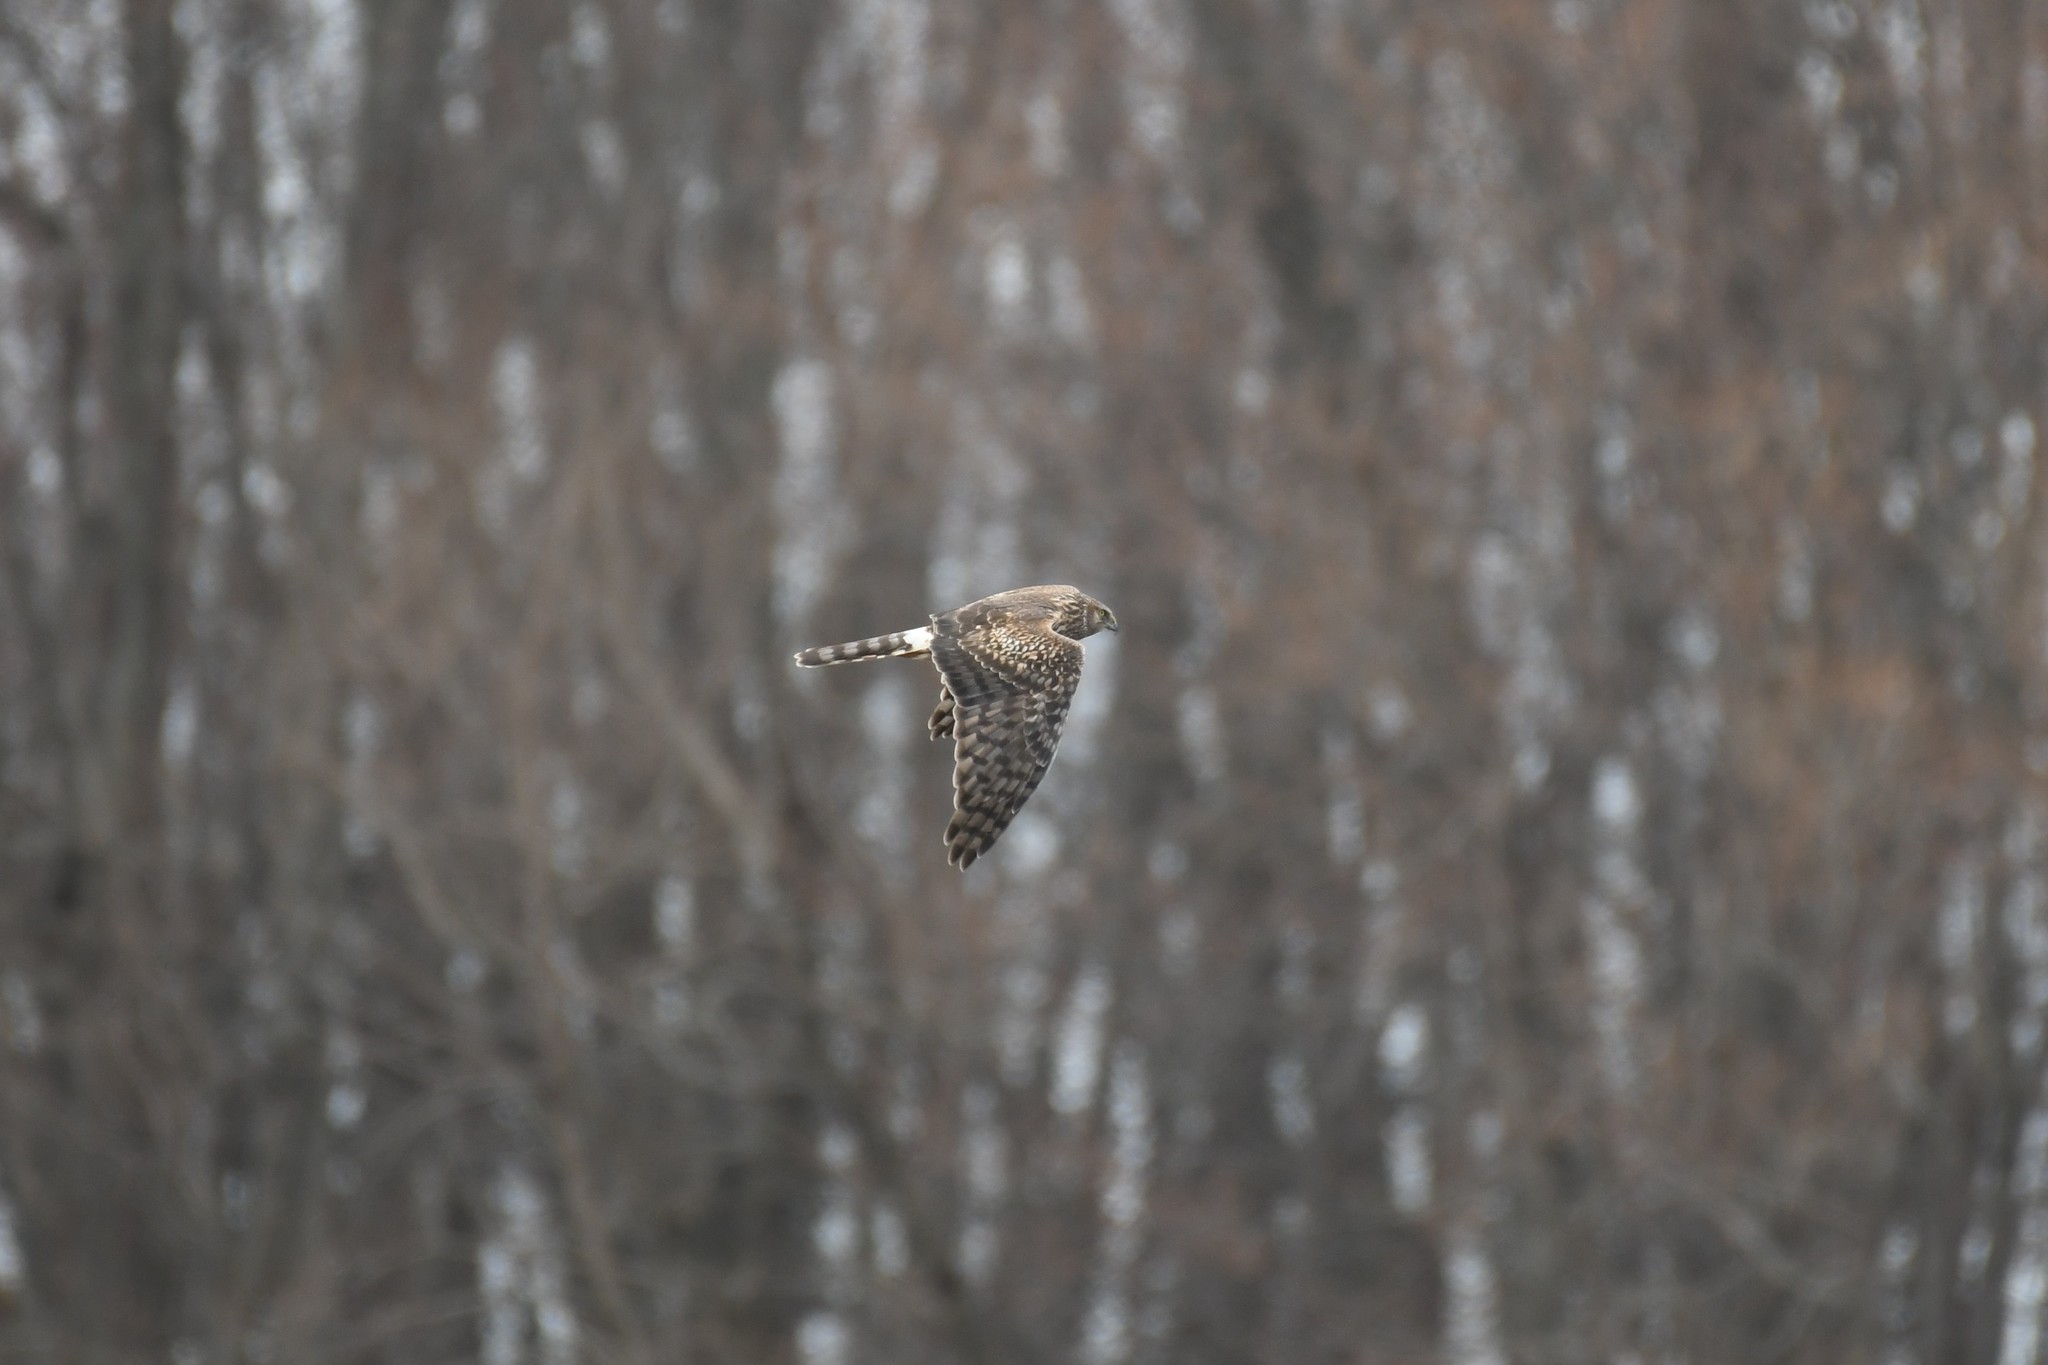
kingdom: Animalia
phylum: Chordata
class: Aves
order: Accipitriformes
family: Accipitridae
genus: Circus
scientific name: Circus cyaneus
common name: Hen harrier
